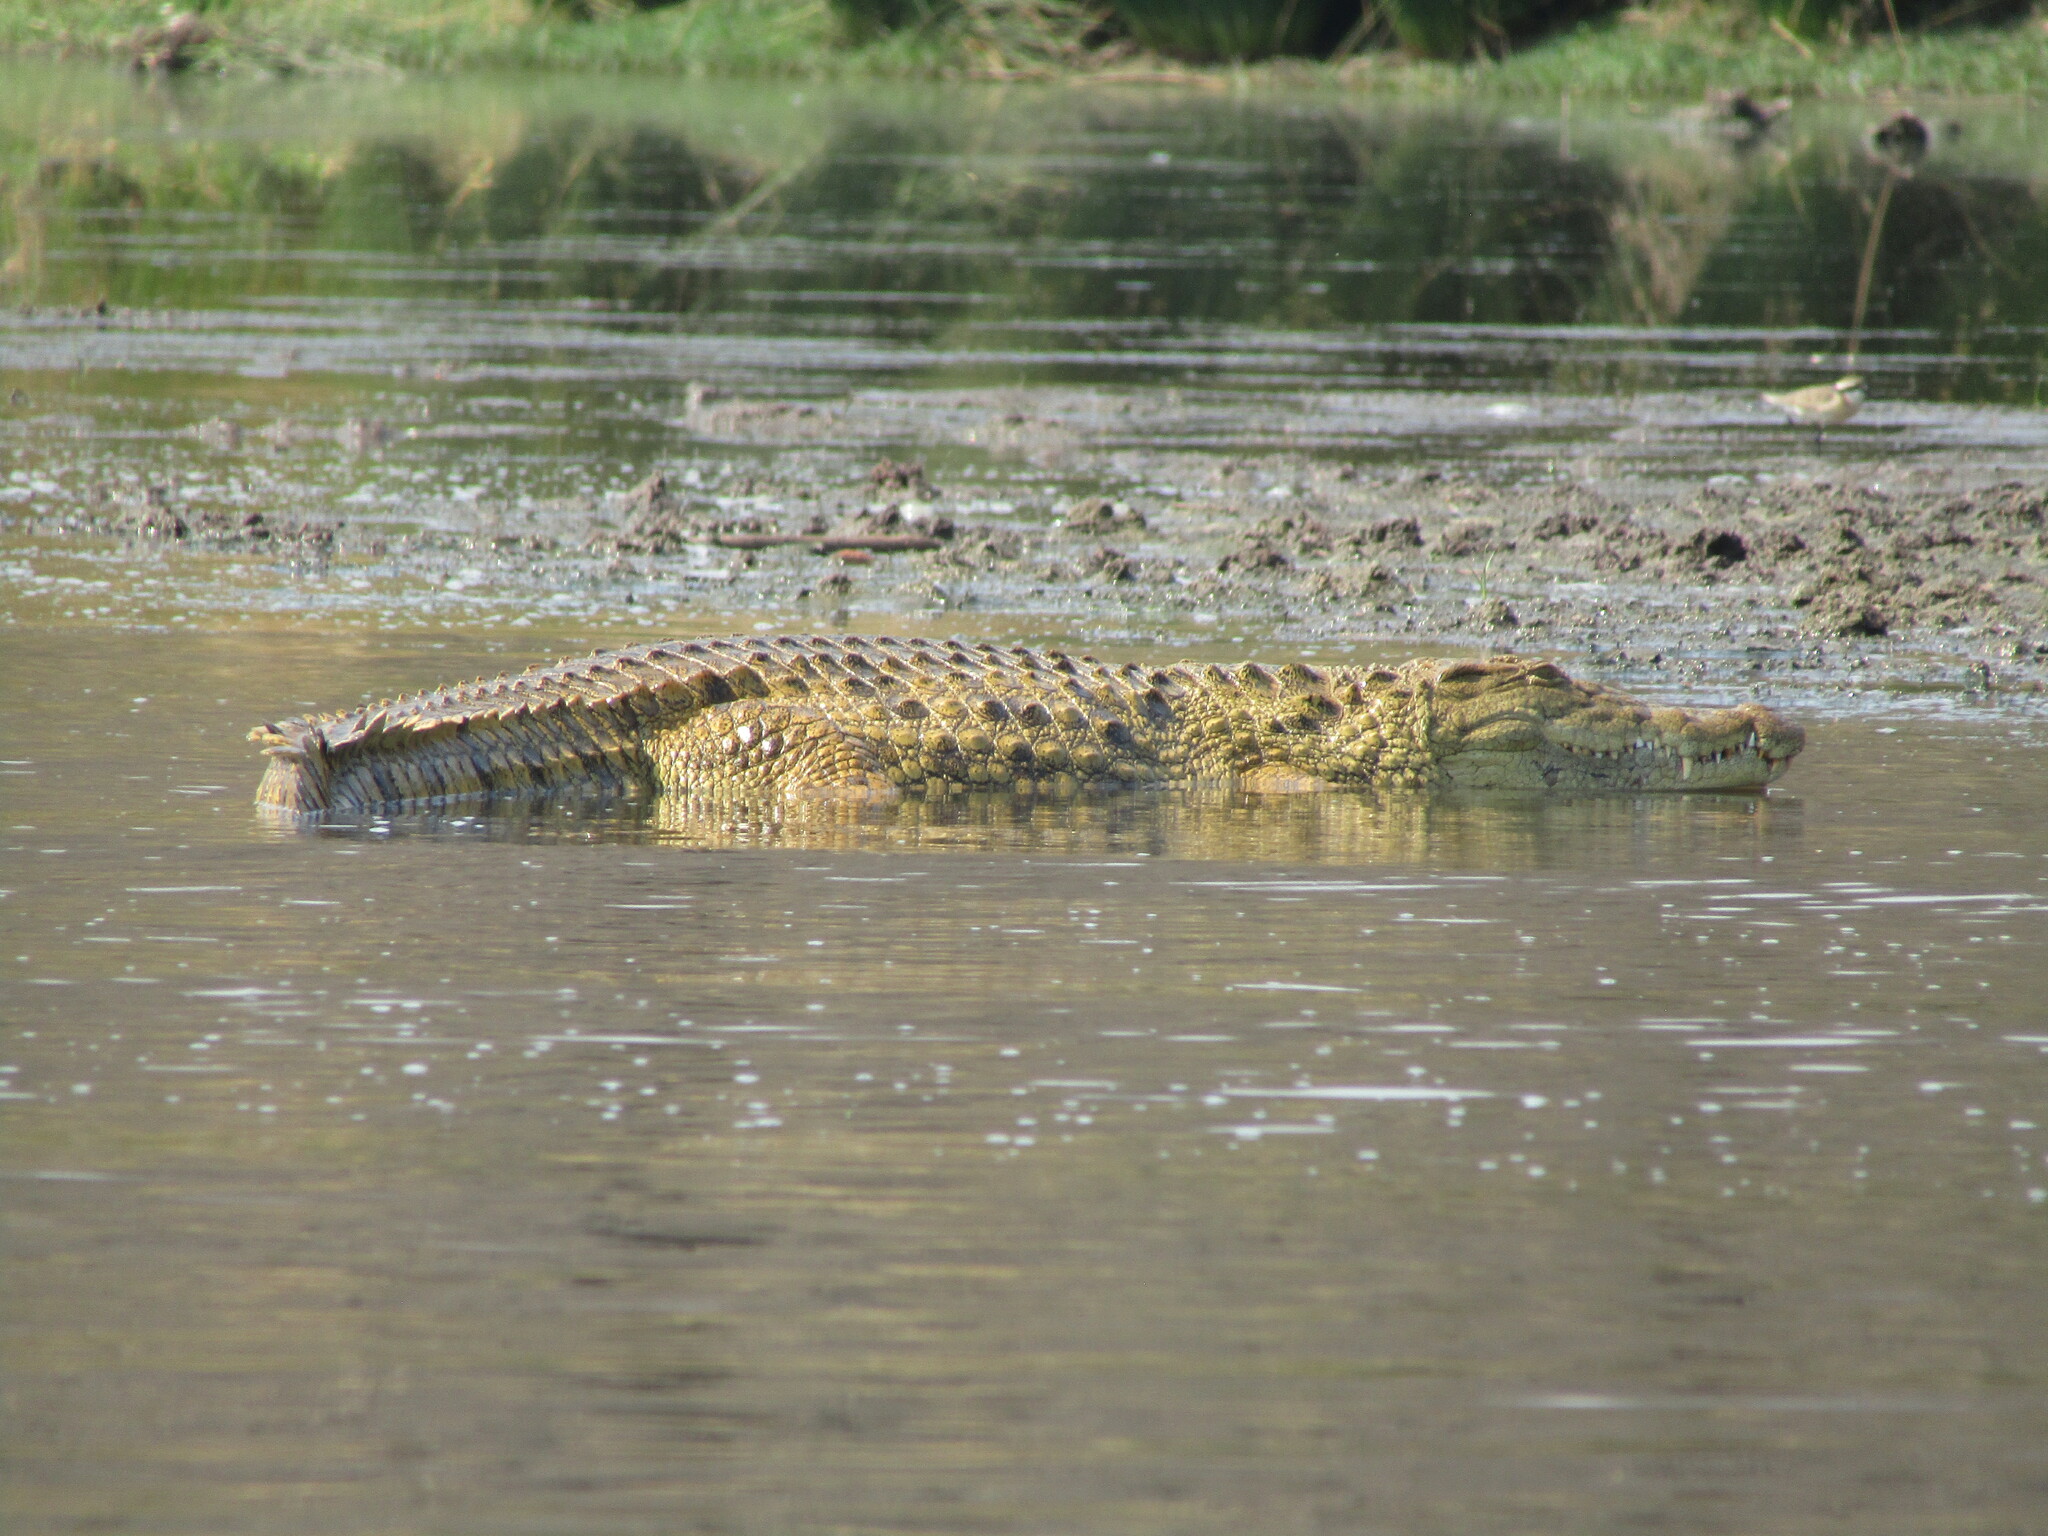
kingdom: Animalia
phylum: Chordata
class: Crocodylia
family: Crocodylidae
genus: Crocodylus
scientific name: Crocodylus niloticus
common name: Nile crocodile
